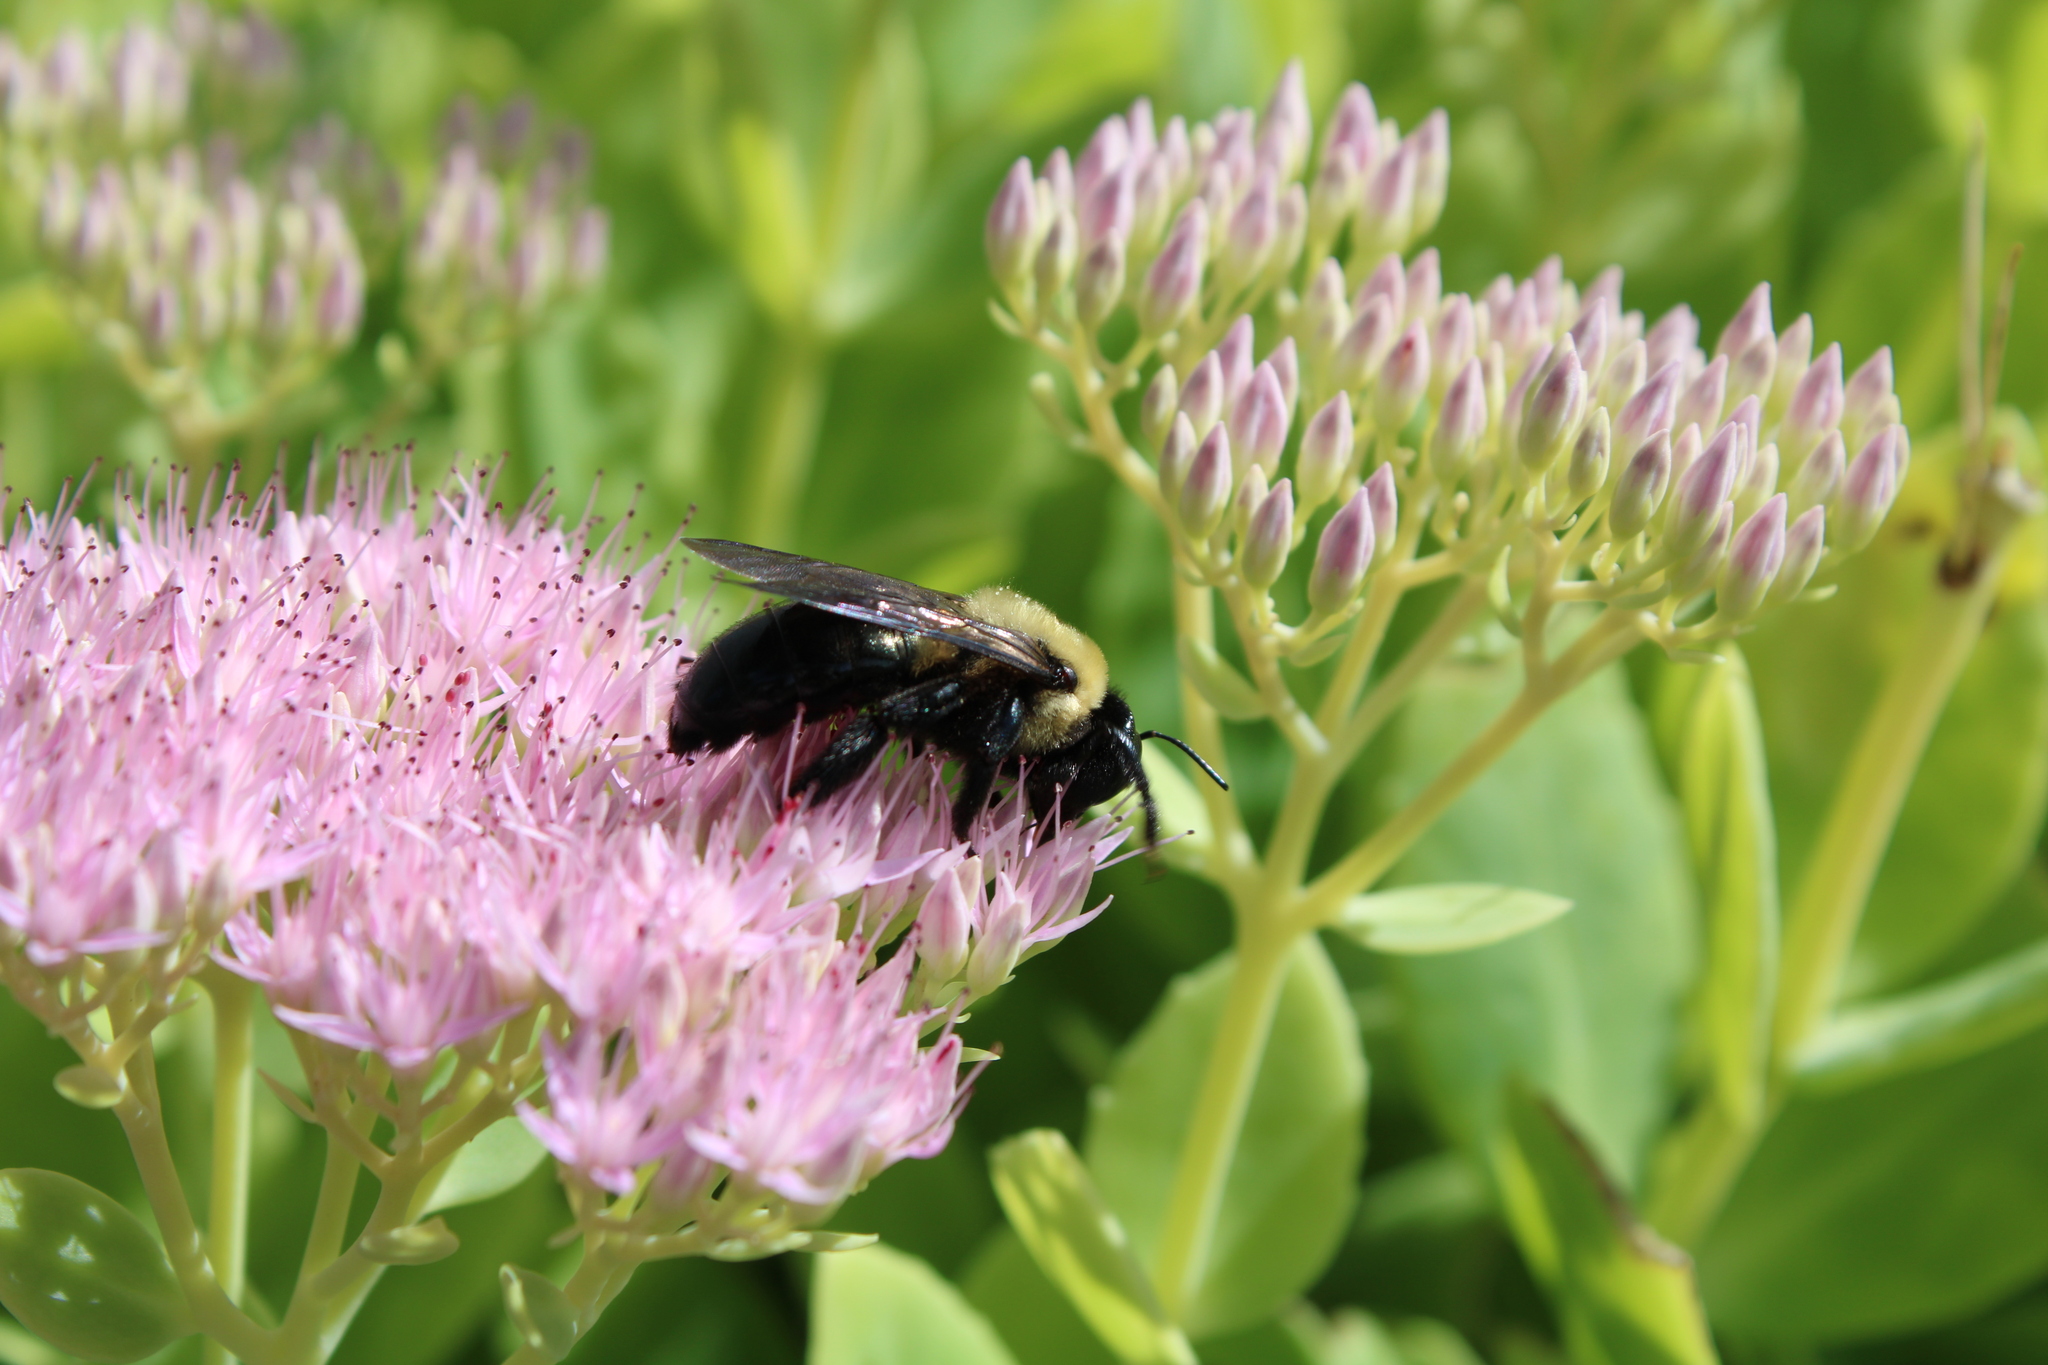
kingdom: Animalia
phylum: Arthropoda
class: Insecta
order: Hymenoptera
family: Apidae
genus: Xylocopa
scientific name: Xylocopa virginica
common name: Carpenter bee
